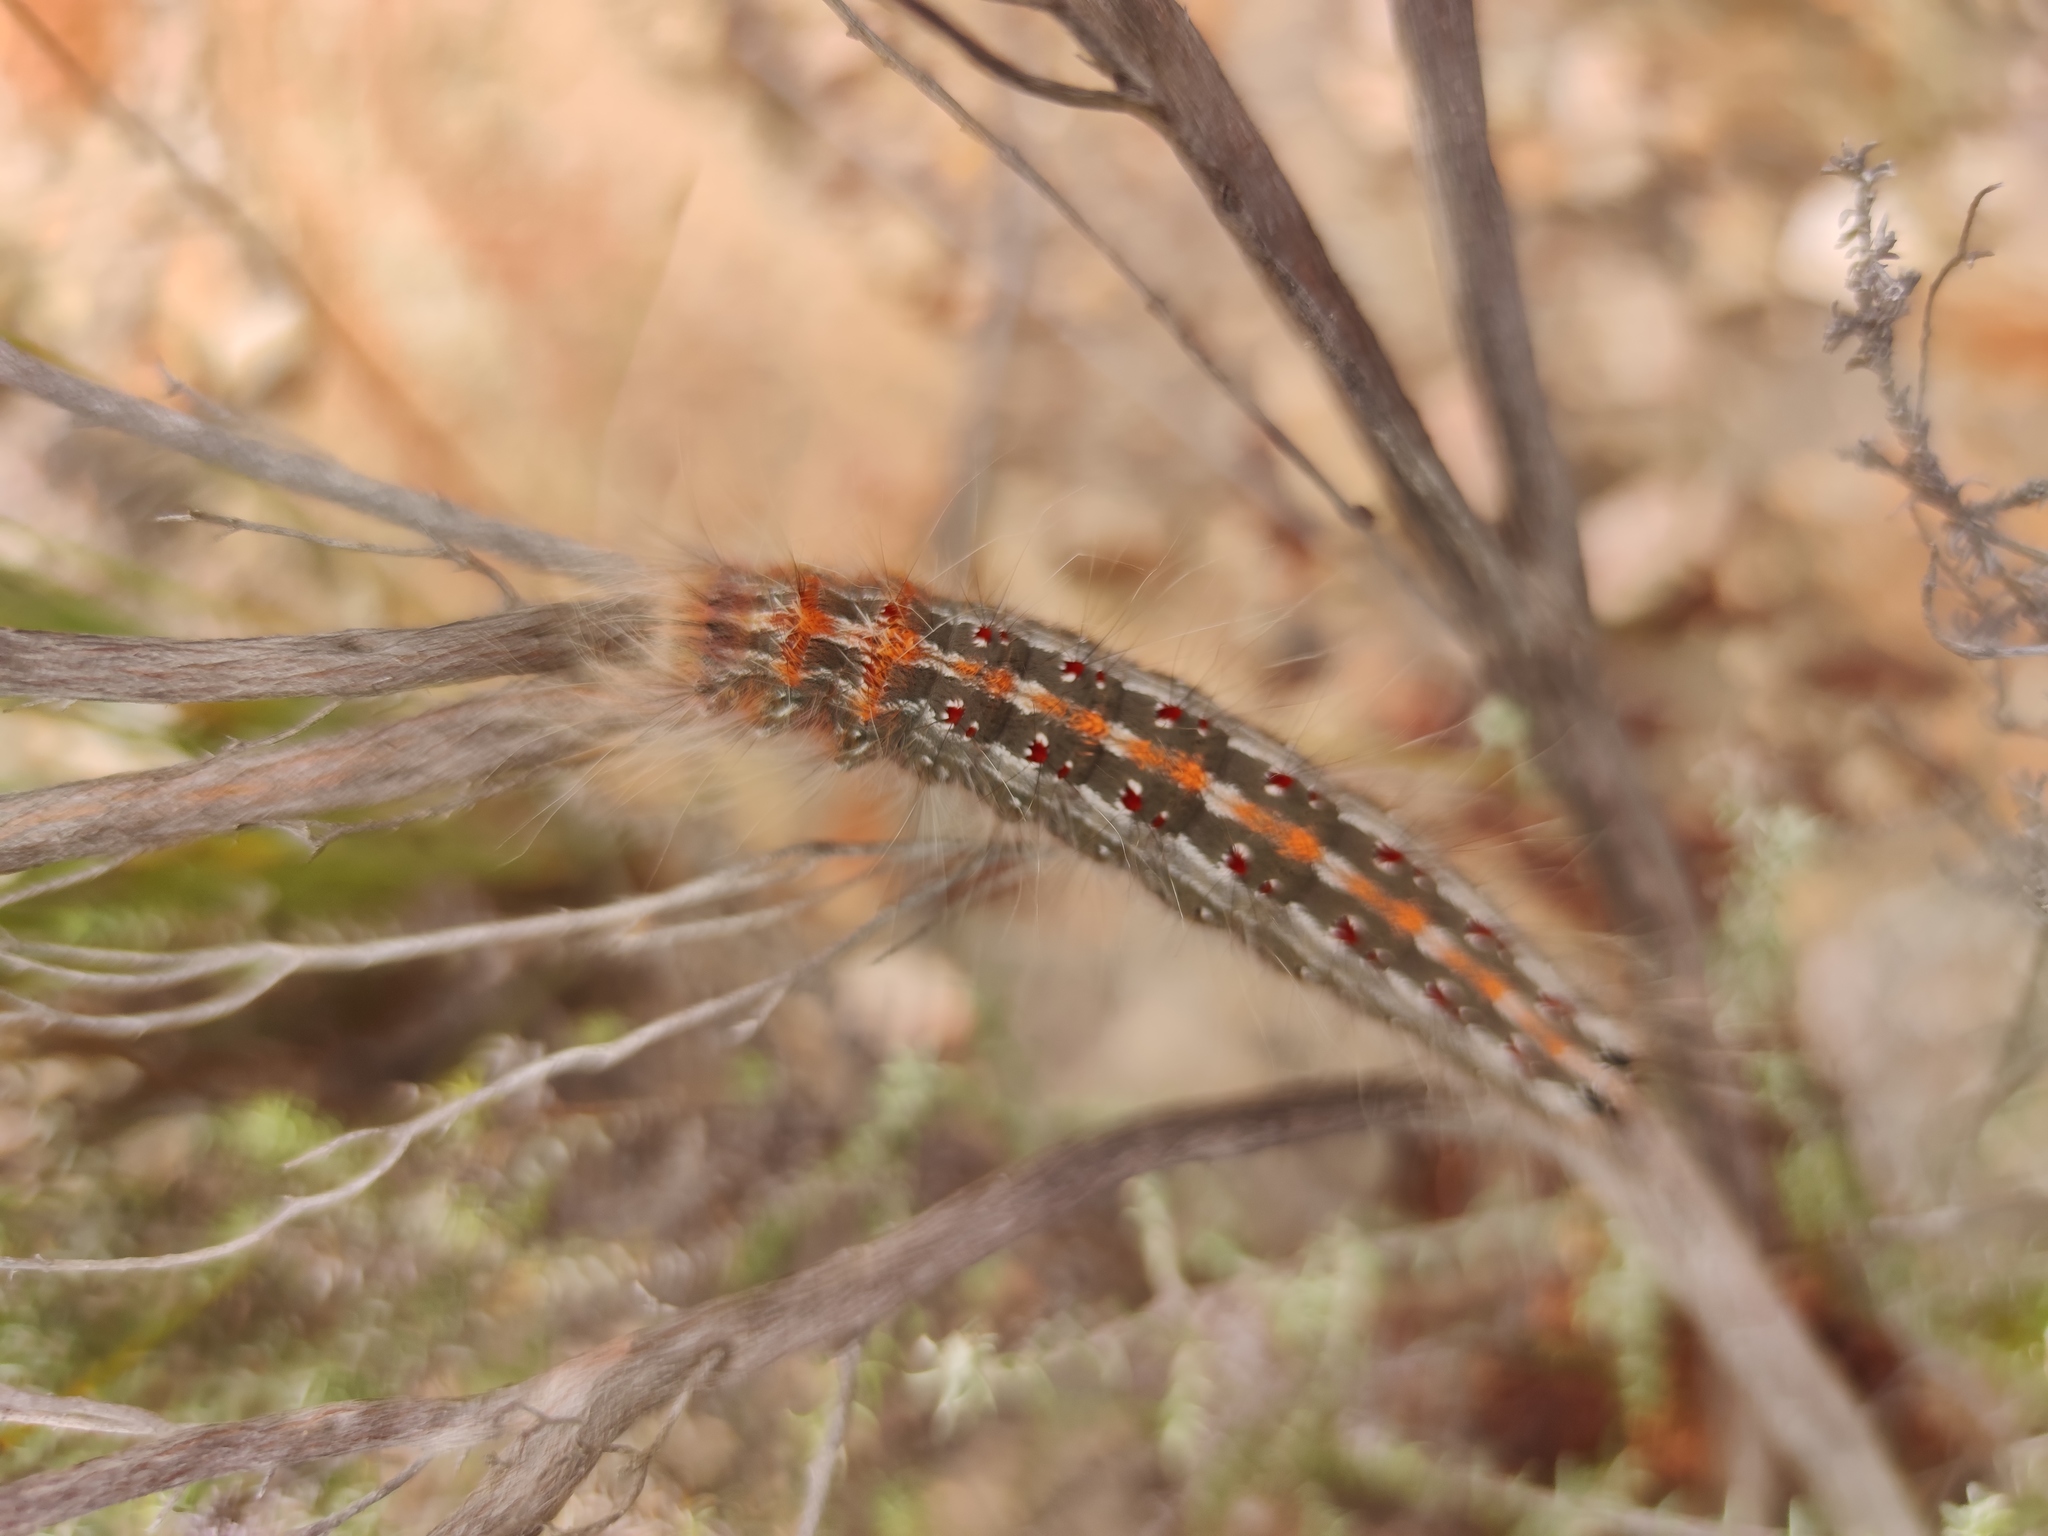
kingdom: Animalia
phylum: Arthropoda
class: Insecta
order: Lepidoptera
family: Lasiocampidae
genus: Streblote
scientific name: Streblote cristata
